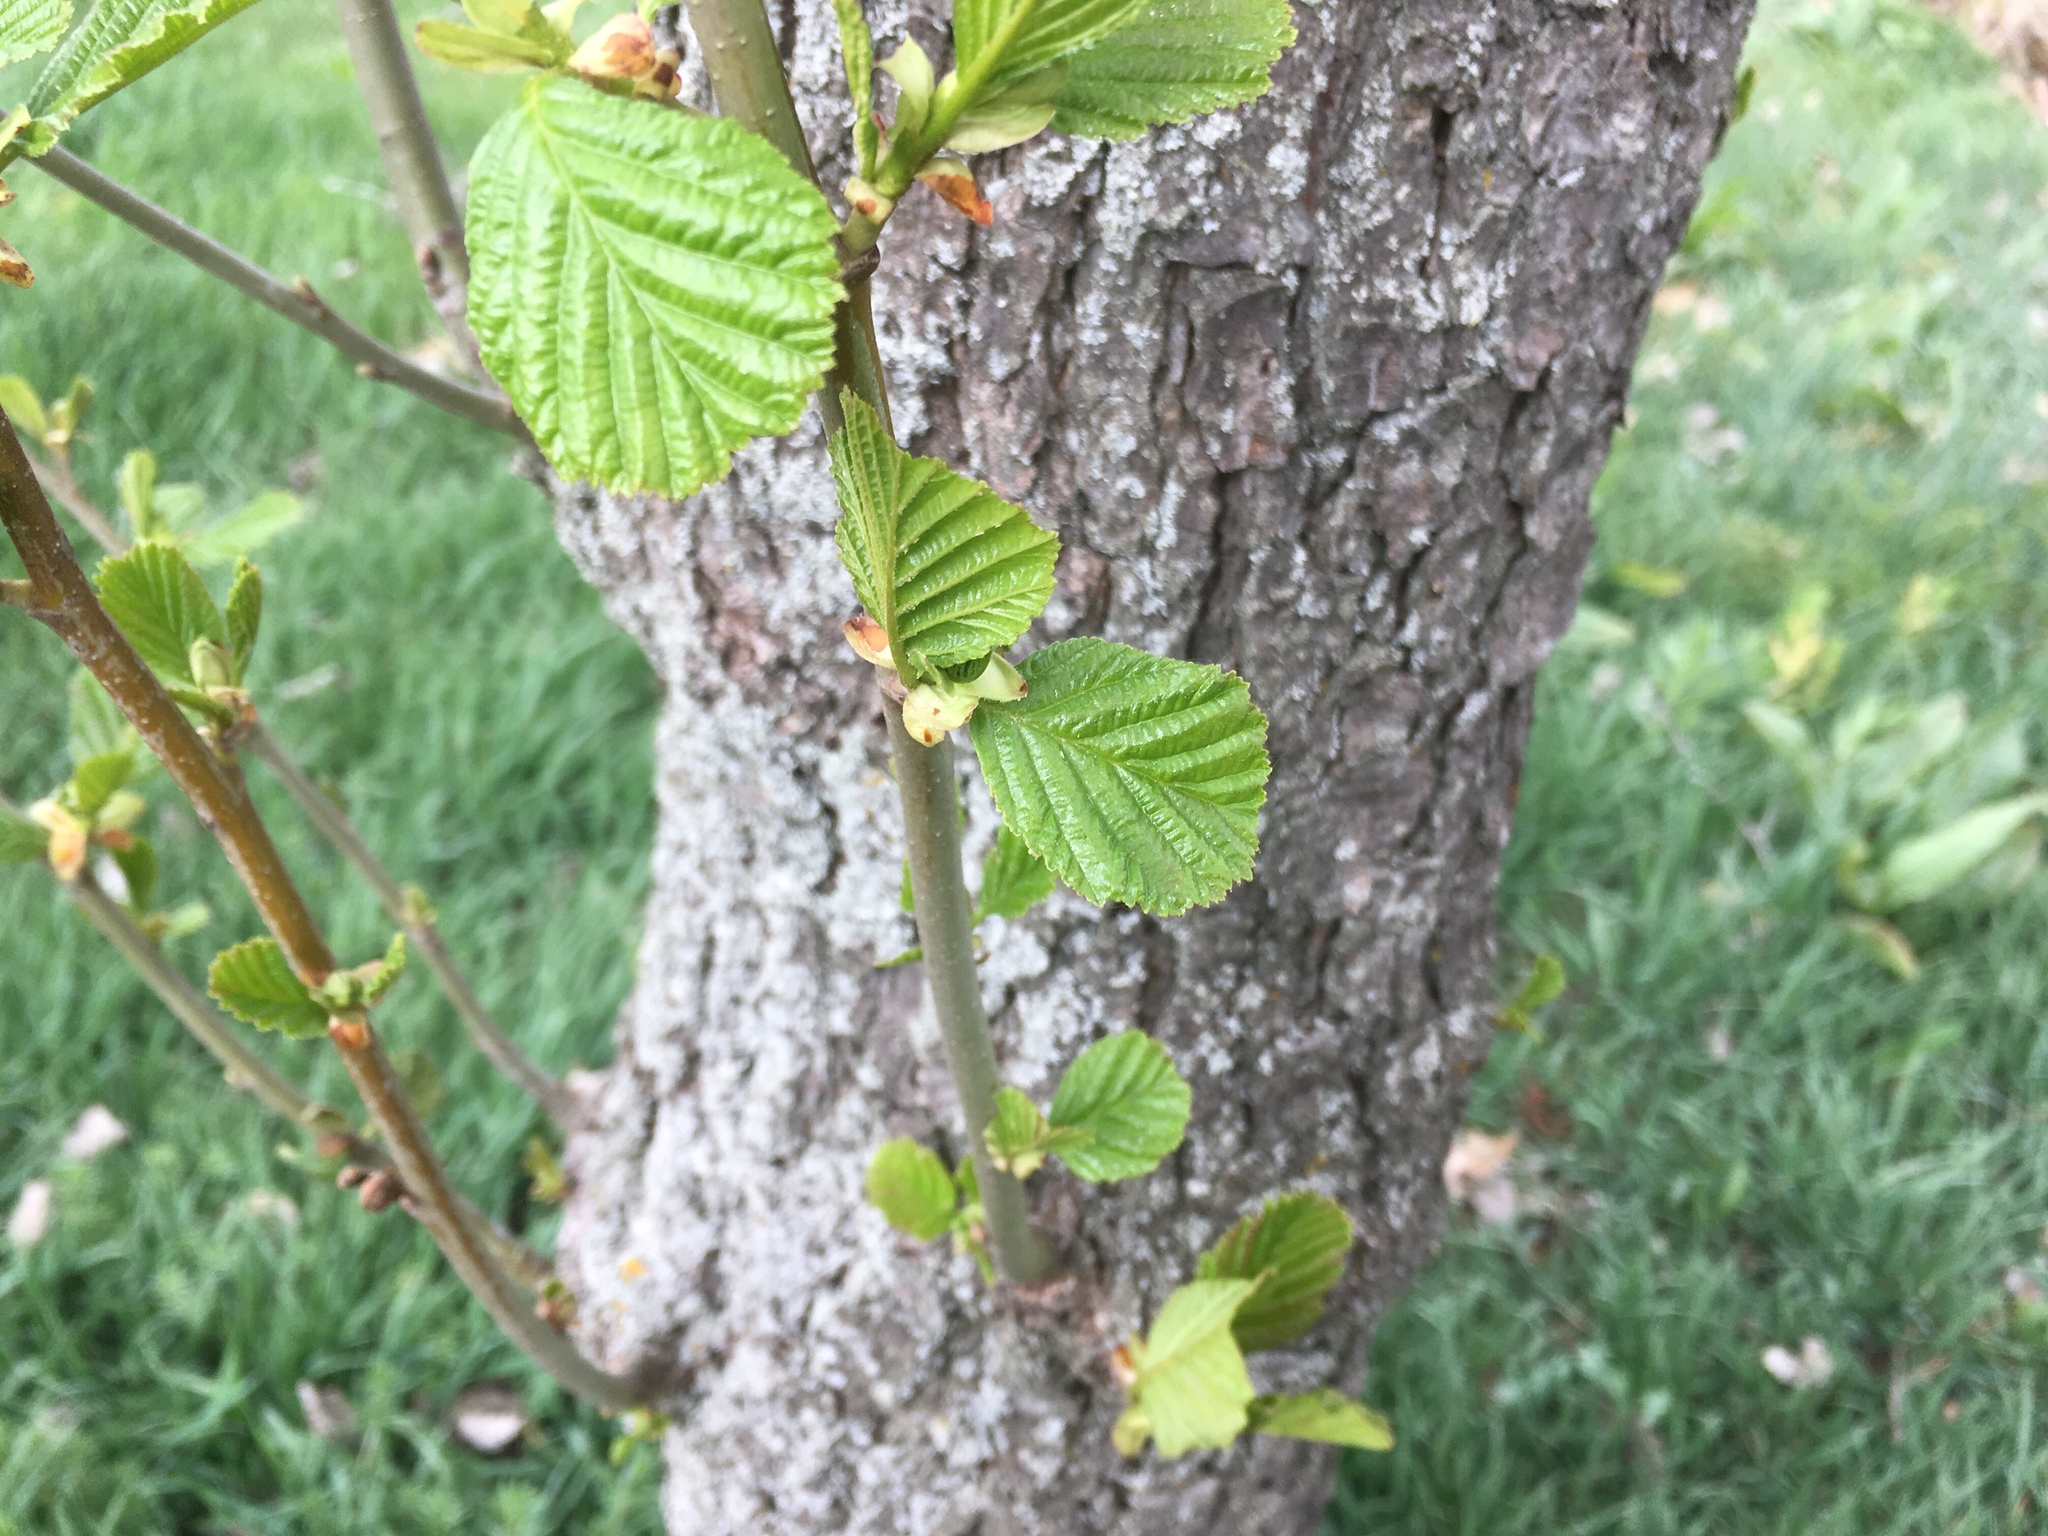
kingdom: Plantae
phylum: Tracheophyta
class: Magnoliopsida
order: Fagales
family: Betulaceae
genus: Alnus
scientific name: Alnus lusitanica
